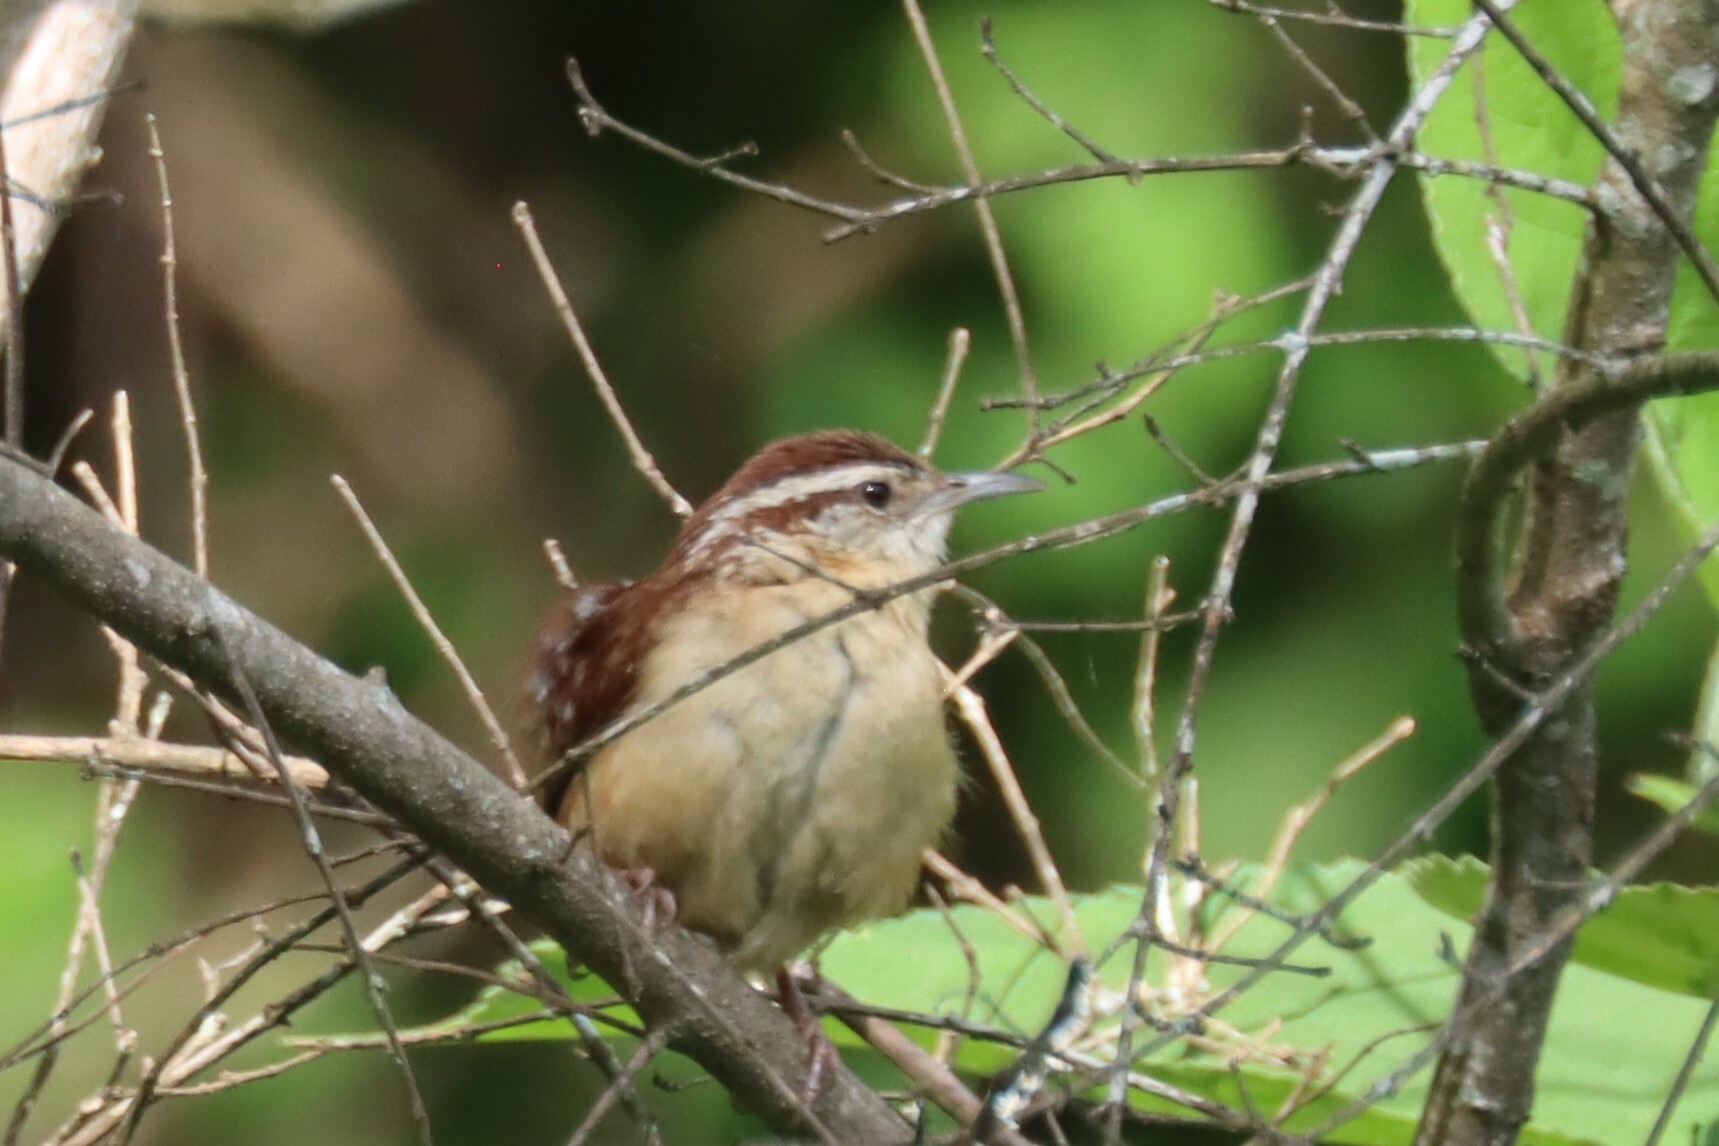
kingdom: Animalia
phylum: Chordata
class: Aves
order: Passeriformes
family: Troglodytidae
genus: Thryothorus
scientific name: Thryothorus ludovicianus
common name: Carolina wren
